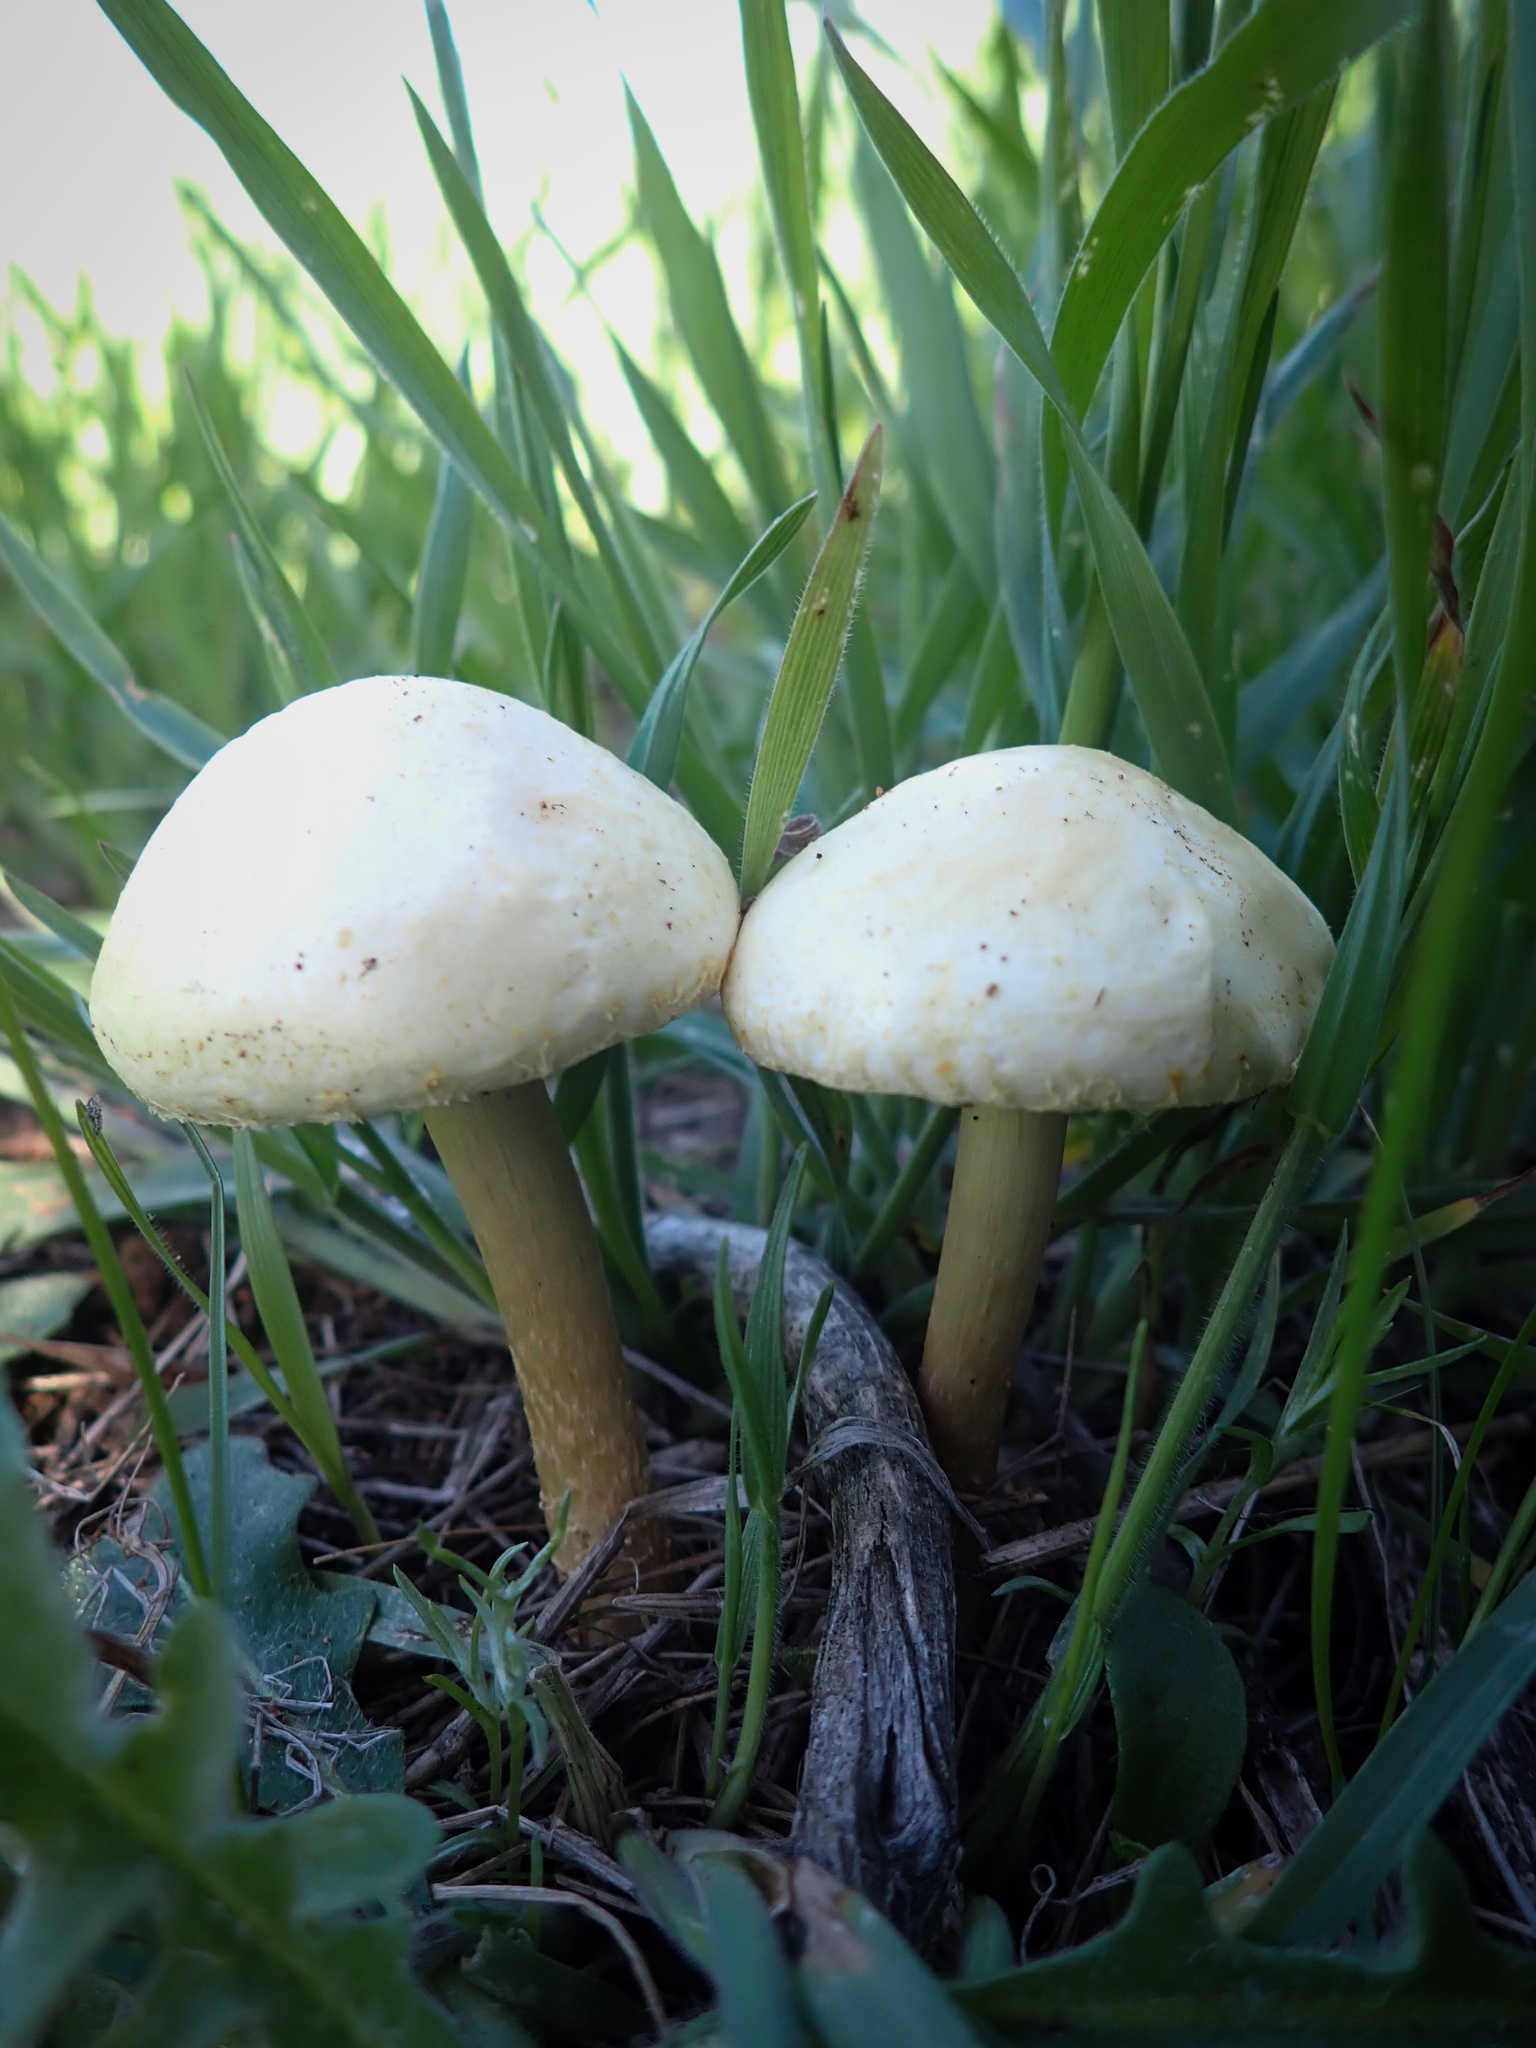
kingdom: Fungi
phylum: Basidiomycota
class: Agaricomycetes
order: Agaricales
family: Strophariaceae
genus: Agrocybe
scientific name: Agrocybe molesta
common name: Bearded fieldcap
